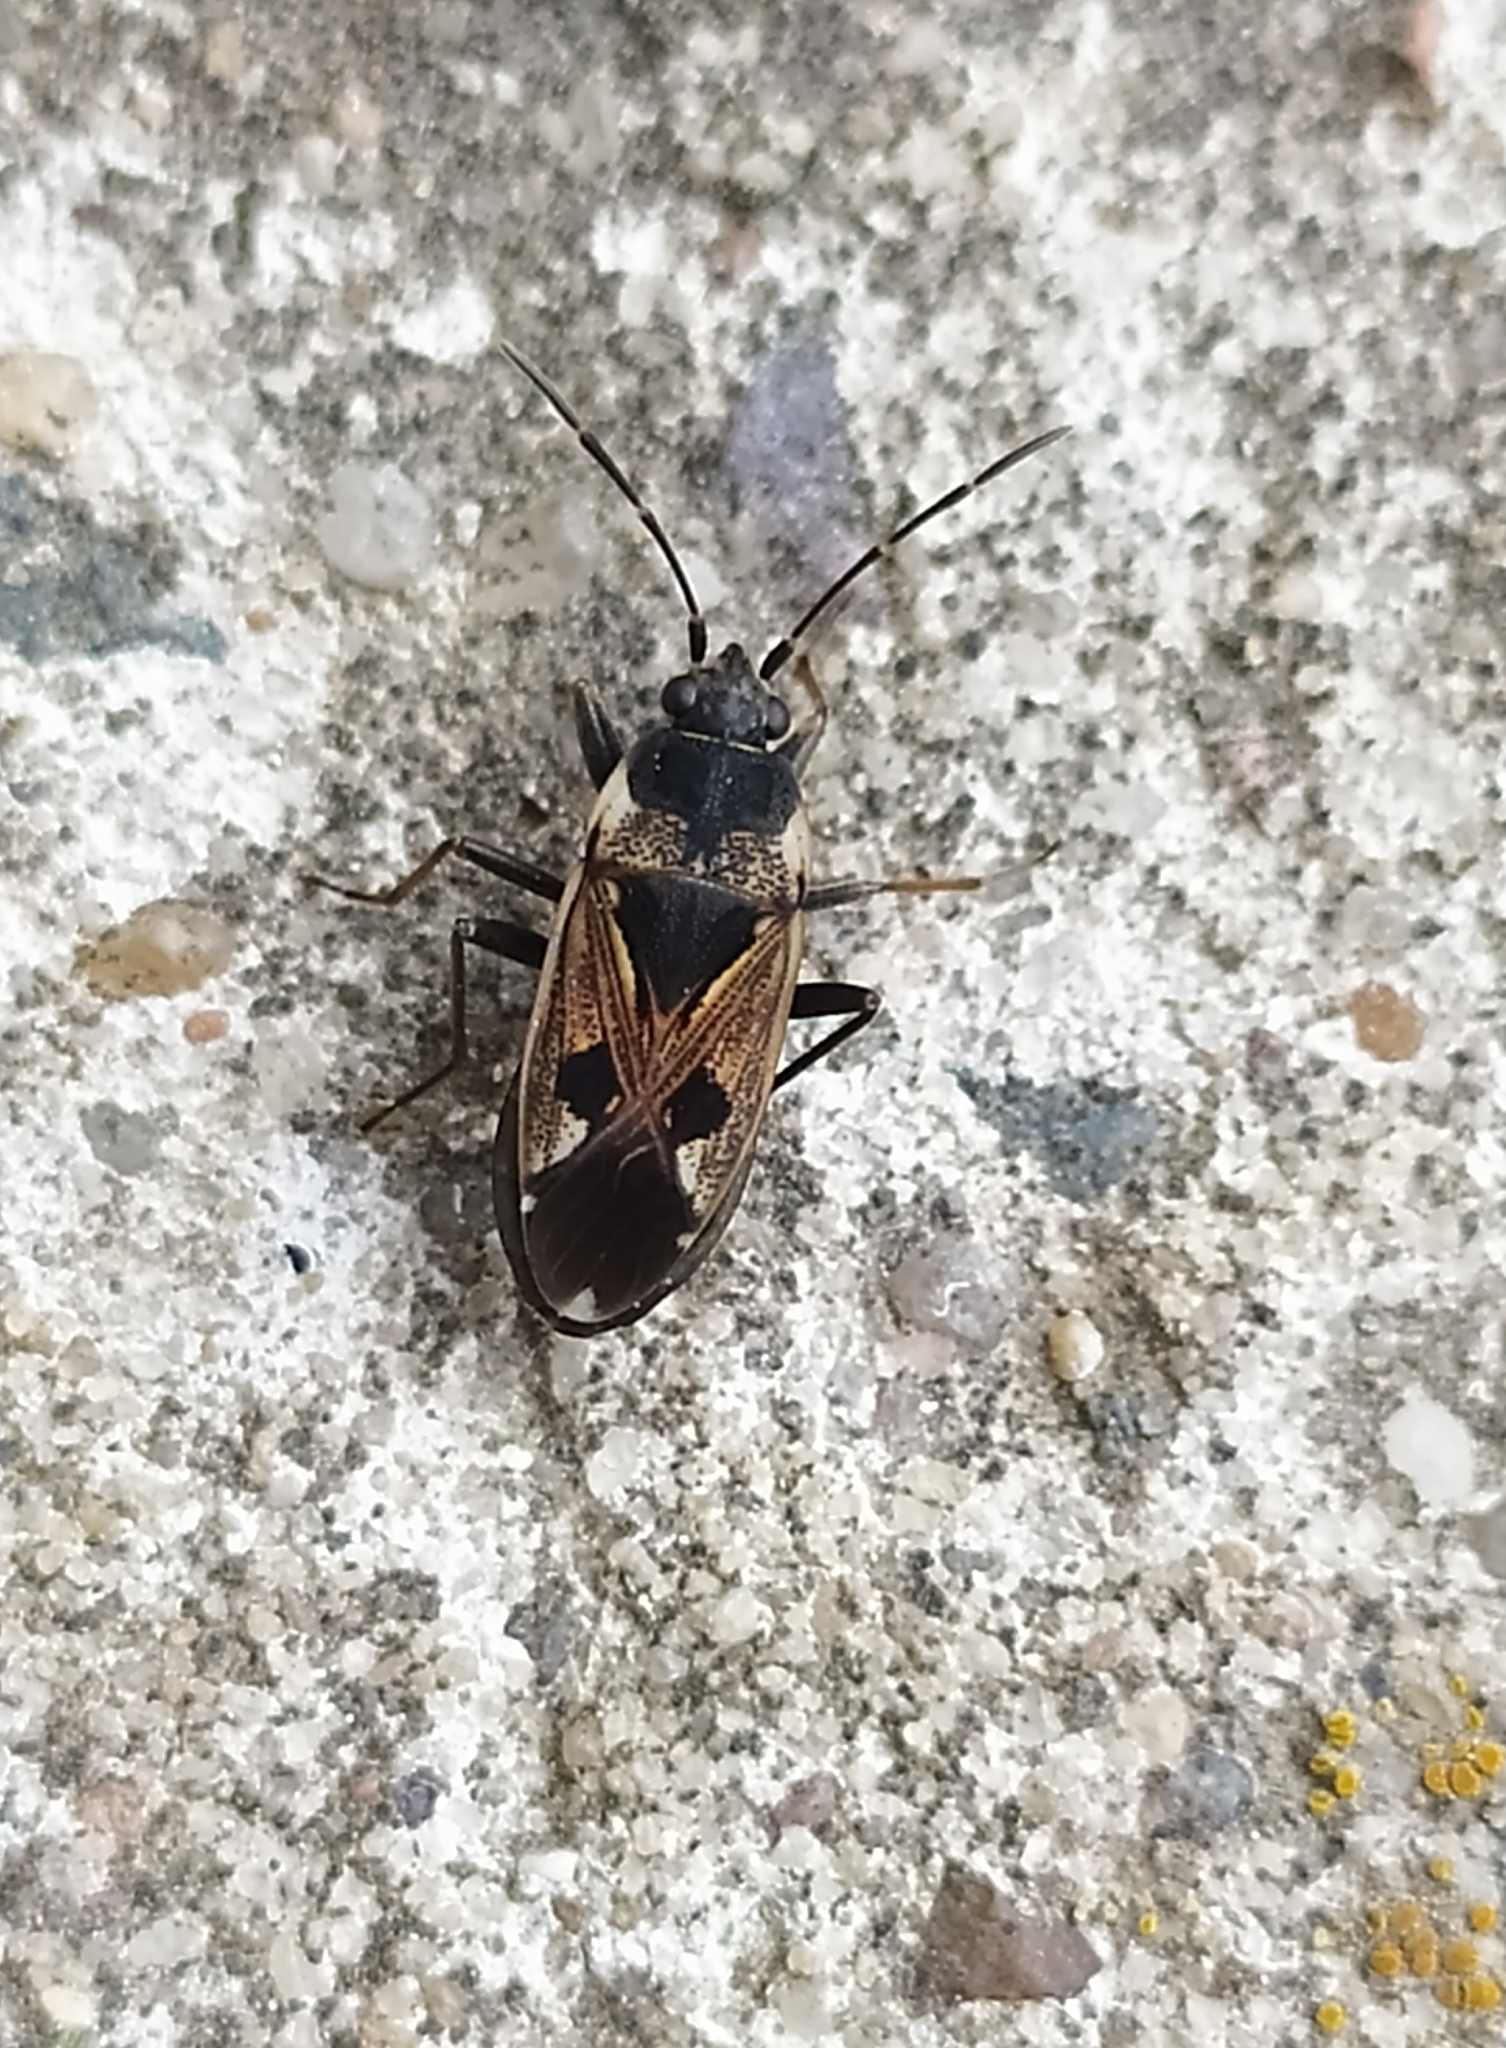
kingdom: Animalia
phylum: Arthropoda
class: Insecta
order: Hemiptera
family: Rhyparochromidae
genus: Rhyparochromus
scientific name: Rhyparochromus vulgaris
